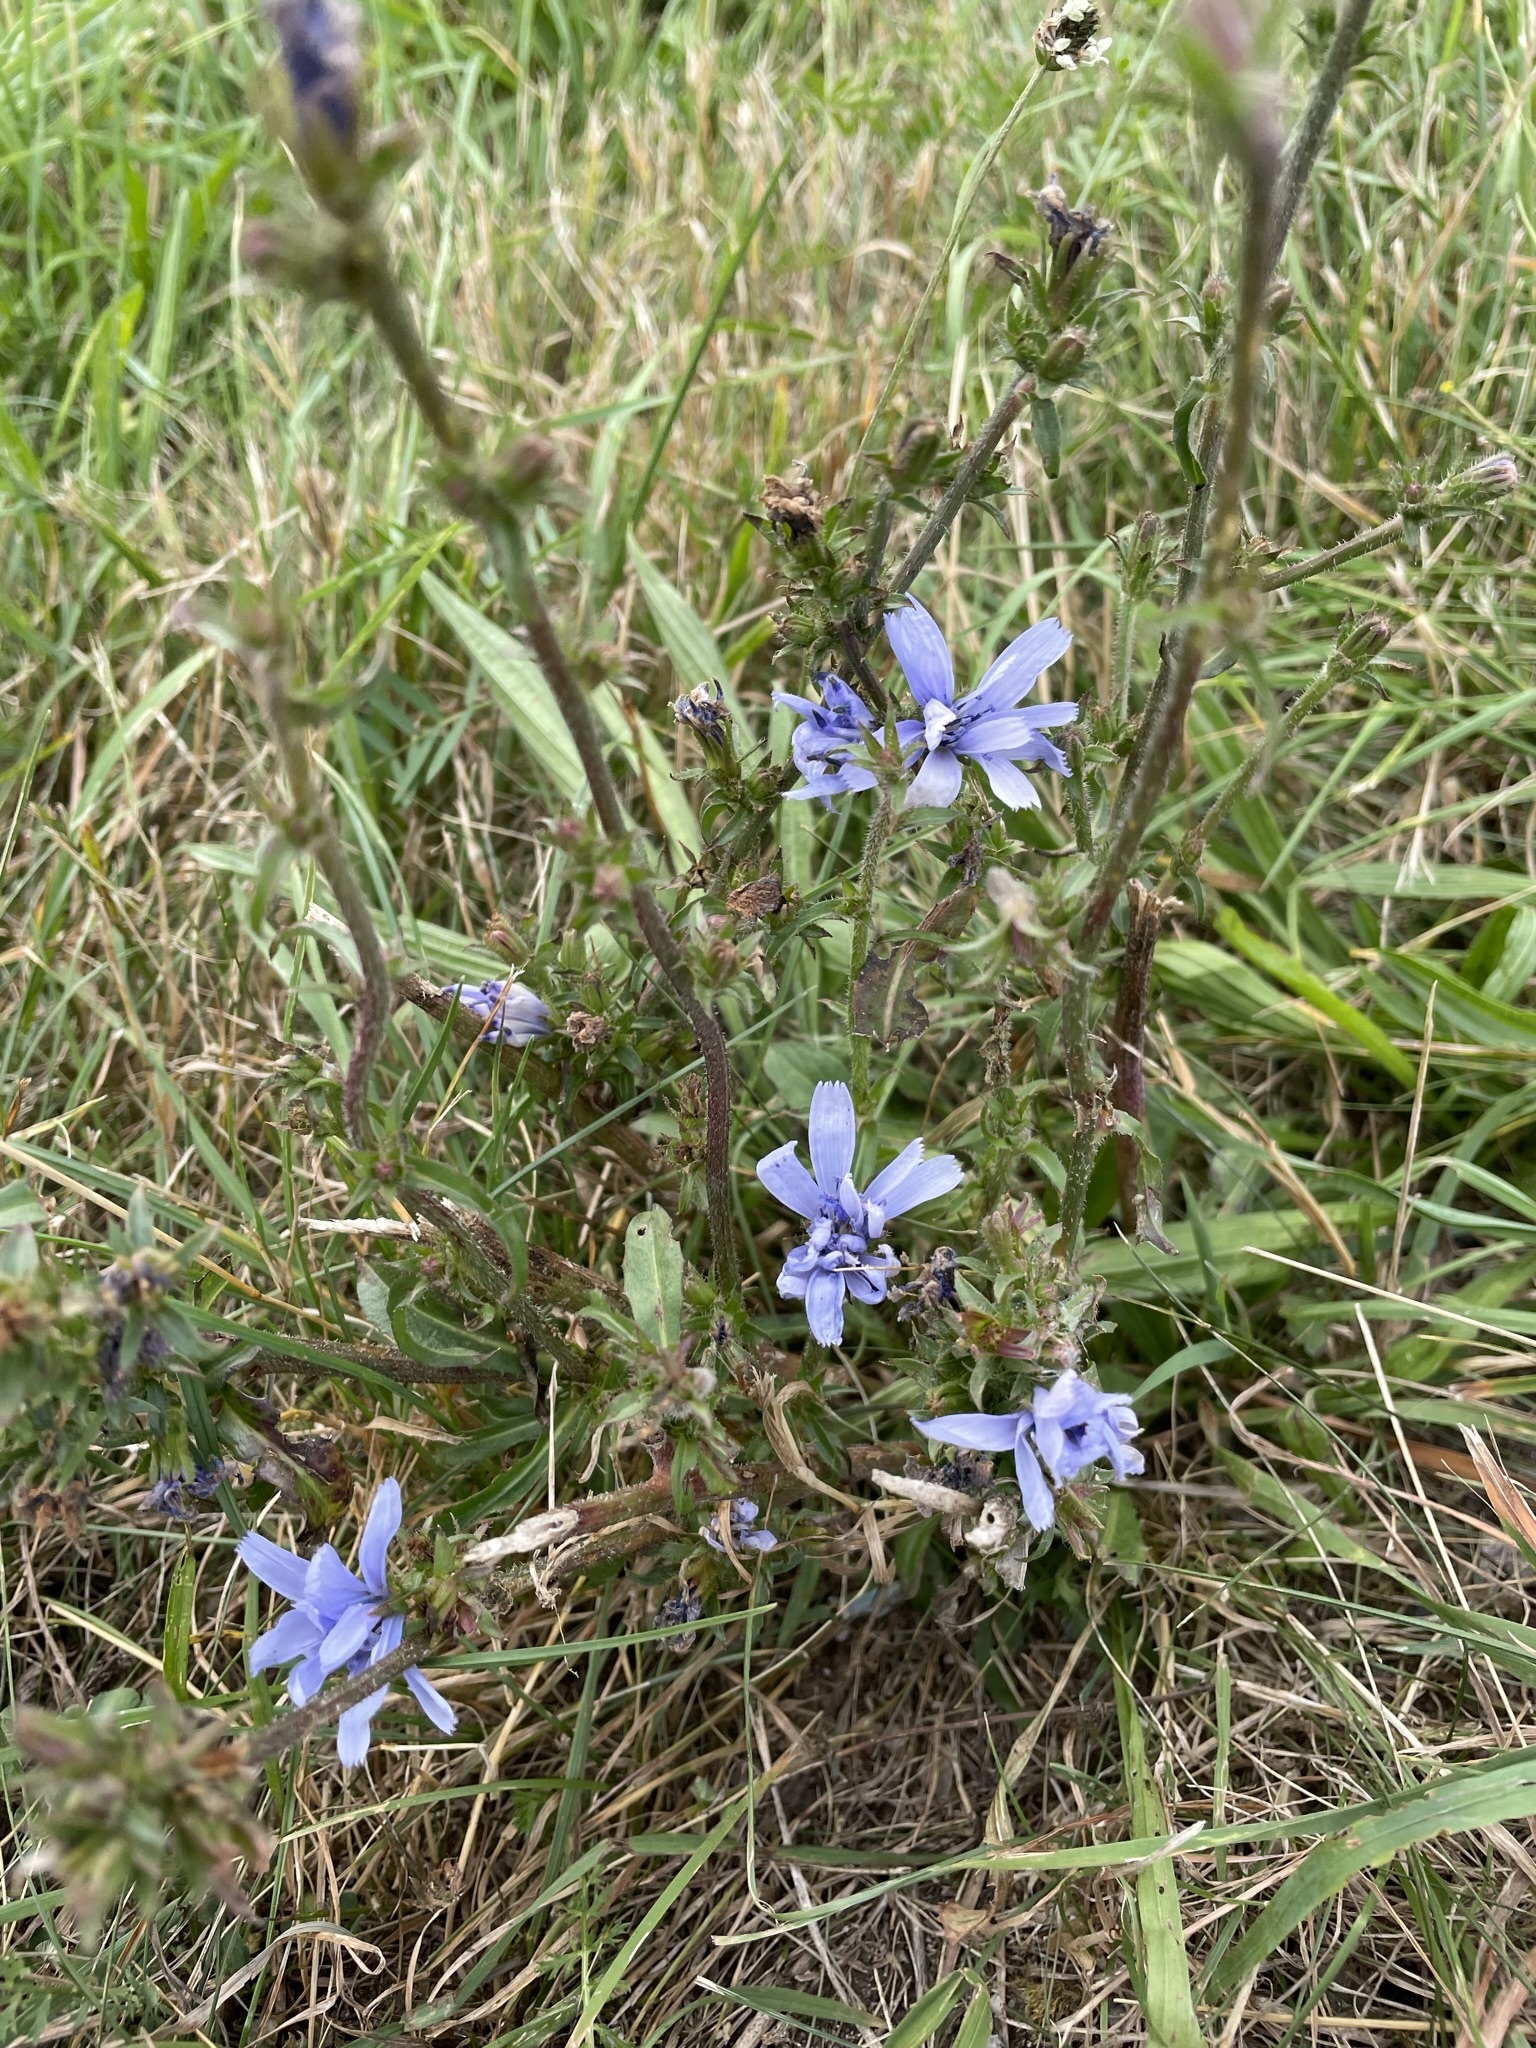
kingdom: Plantae
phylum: Tracheophyta
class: Magnoliopsida
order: Asterales
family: Asteraceae
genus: Cichorium
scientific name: Cichorium intybus
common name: Chicory
